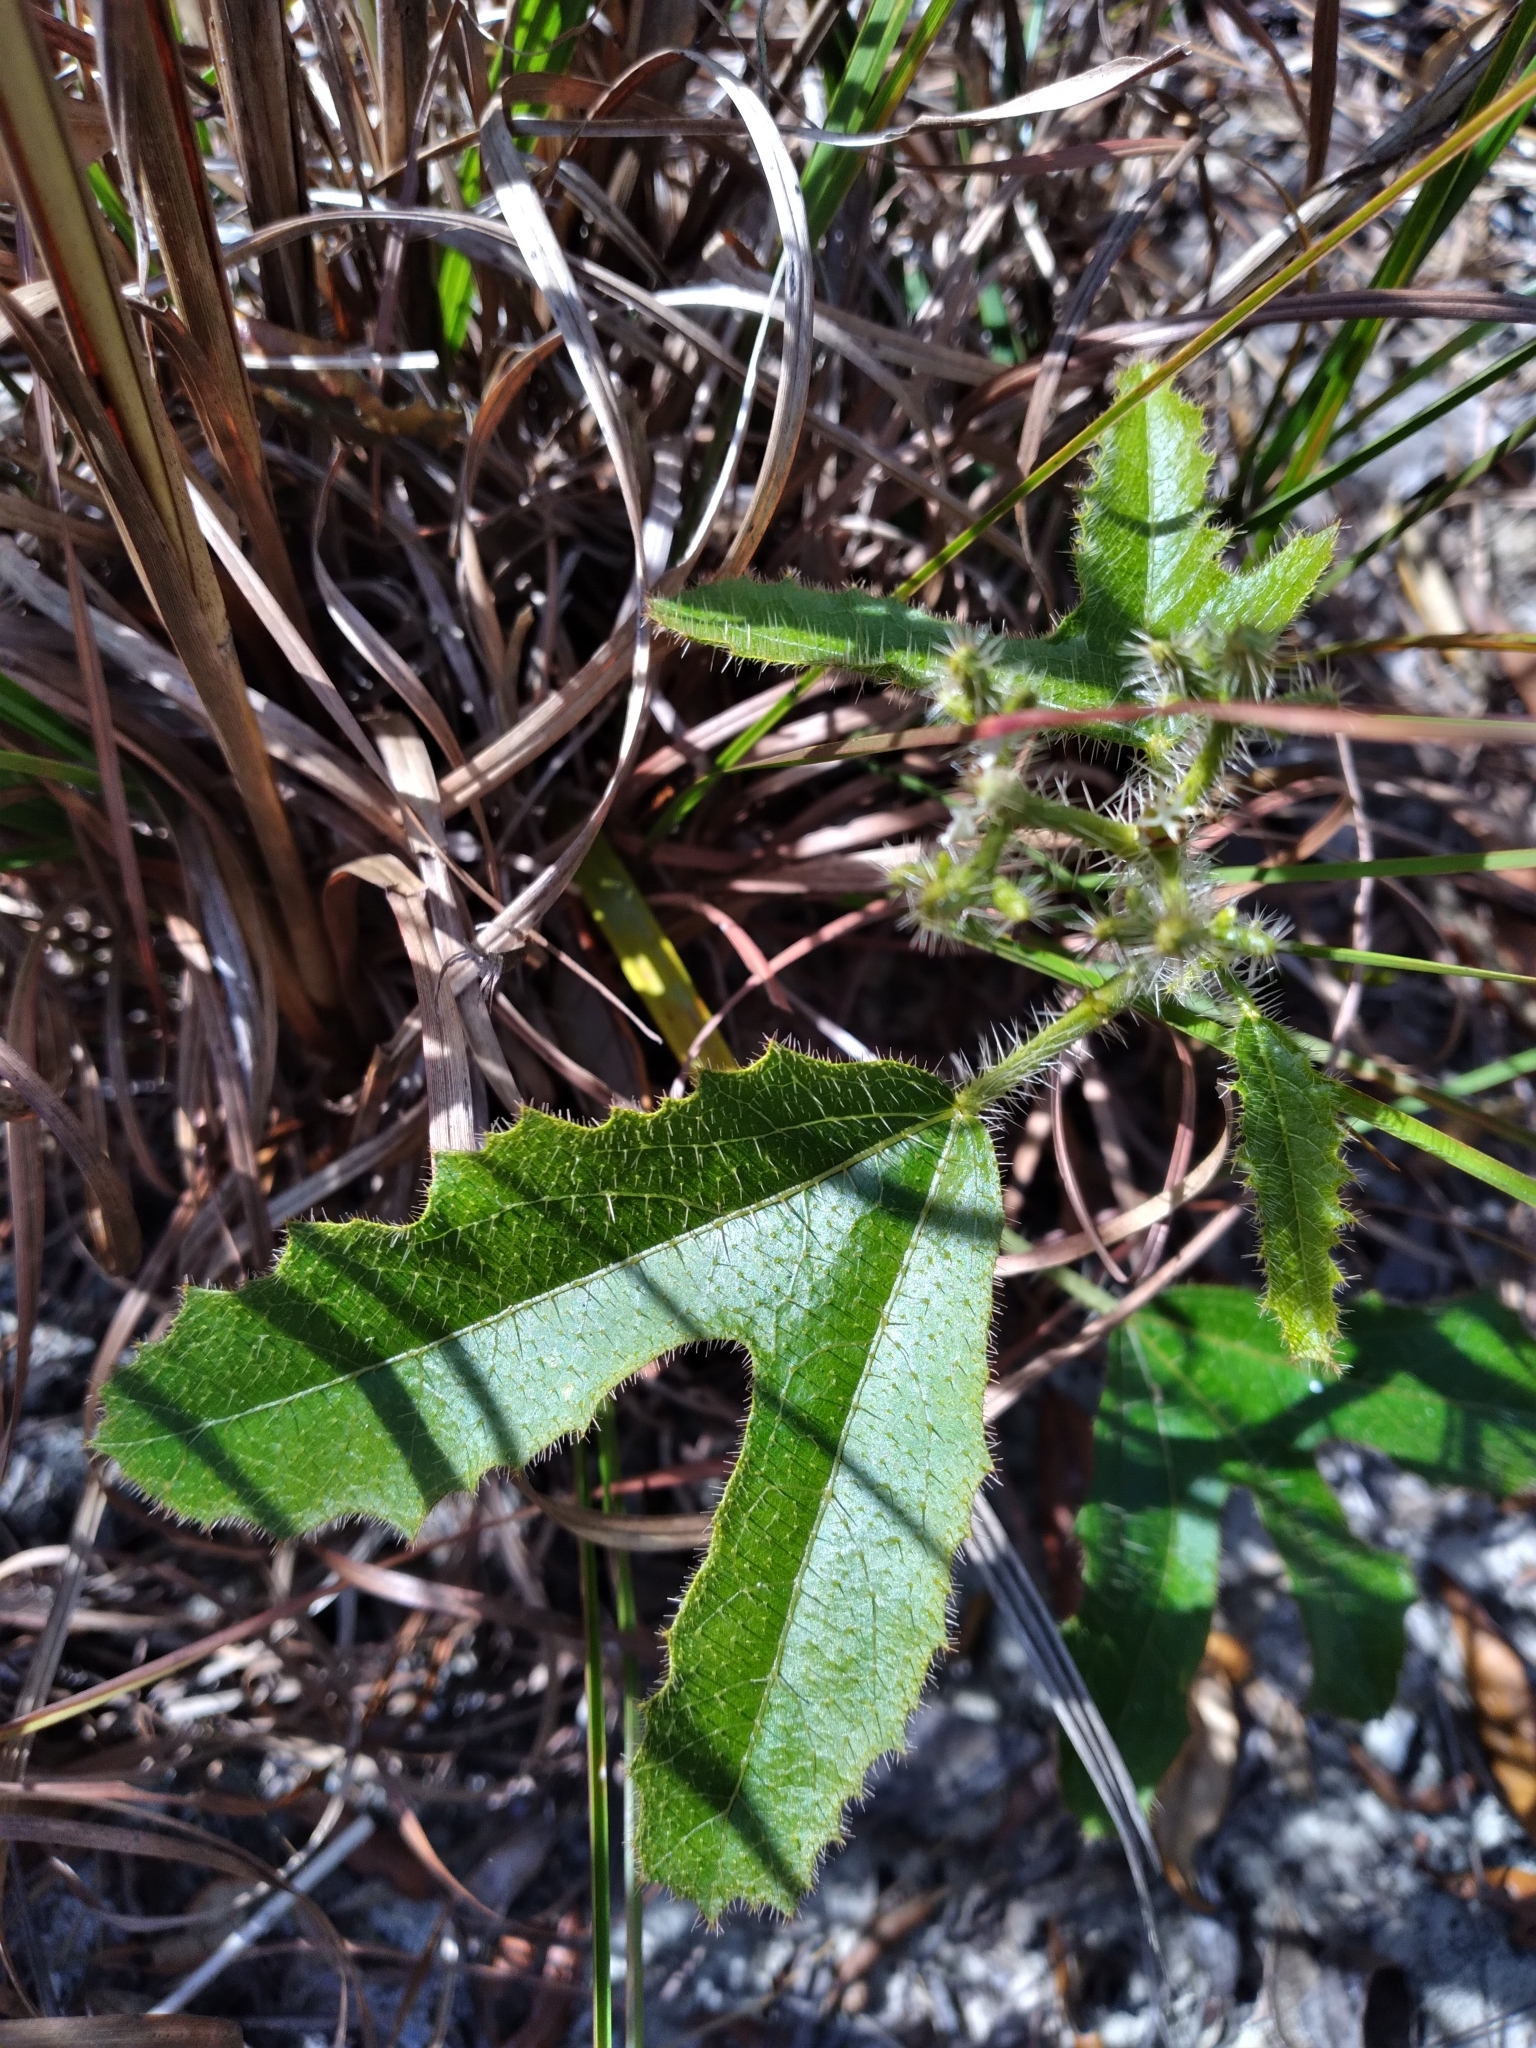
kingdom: Plantae
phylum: Tracheophyta
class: Magnoliopsida
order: Malpighiales
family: Euphorbiaceae
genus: Cnidoscolus
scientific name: Cnidoscolus stimulosus
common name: Bull-nettle
